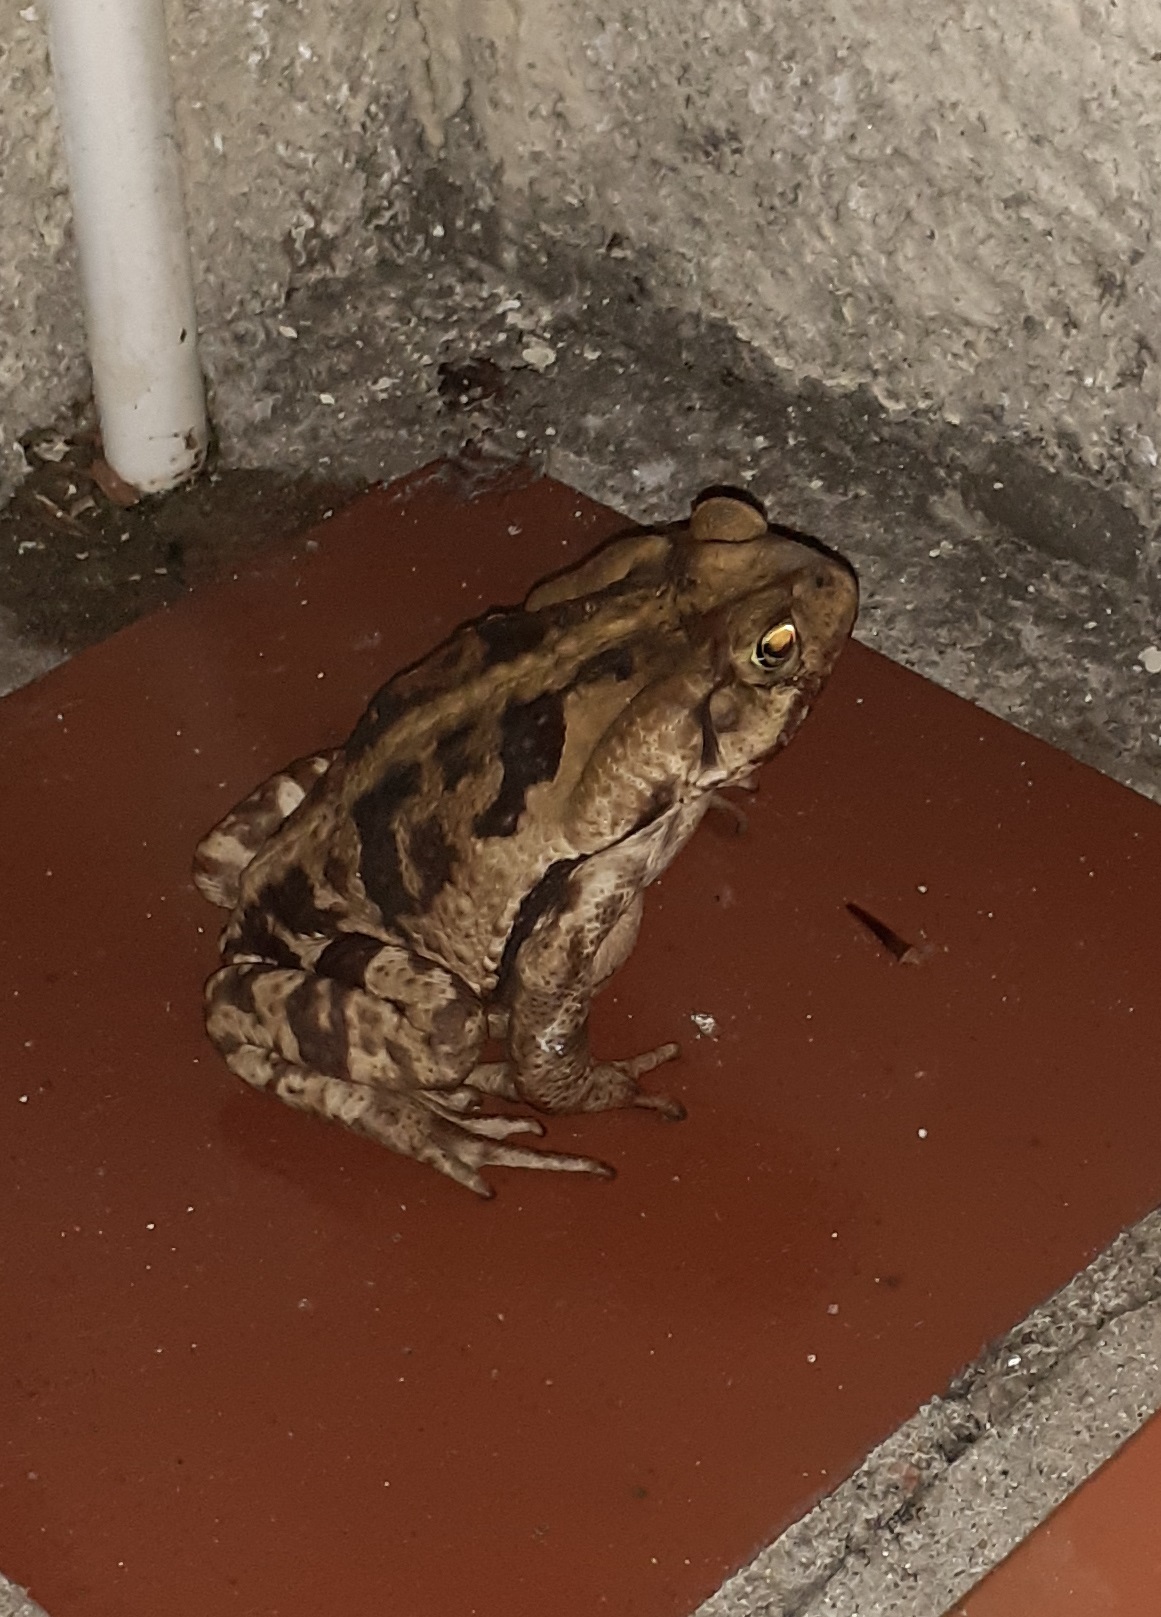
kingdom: Animalia
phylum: Chordata
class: Amphibia
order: Anura
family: Bufonidae
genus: Rhinella
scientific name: Rhinella icterica
